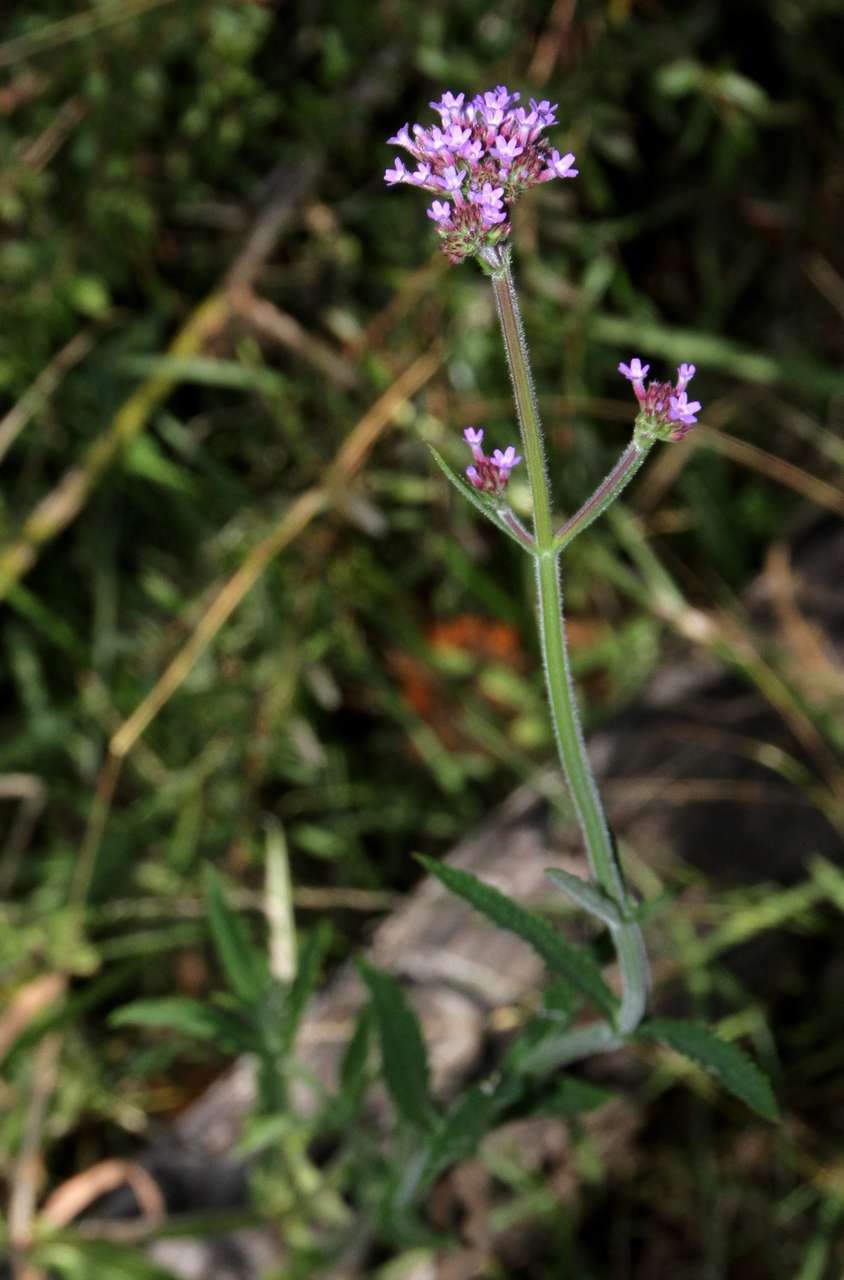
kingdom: Plantae
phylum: Tracheophyta
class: Magnoliopsida
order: Lamiales
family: Verbenaceae
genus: Verbena
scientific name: Verbena bonariensis
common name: Purpletop vervain
